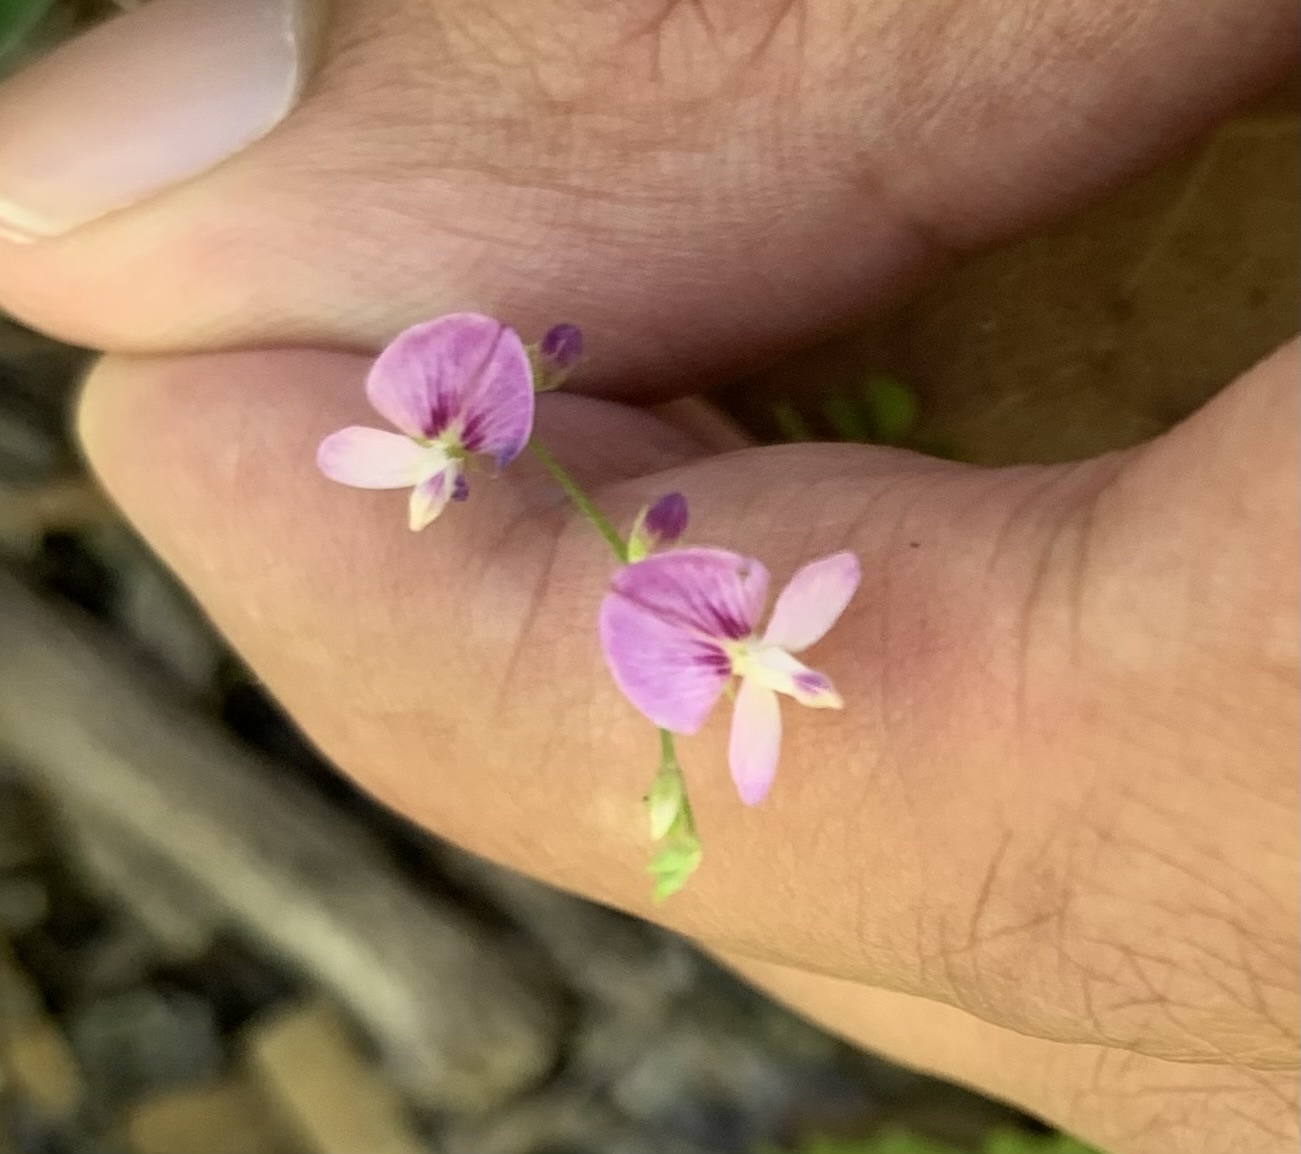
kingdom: Plantae
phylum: Tracheophyta
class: Magnoliopsida
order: Fabales
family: Fabaceae
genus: Lespedeza
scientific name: Lespedeza repens
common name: Creeping bush-clover
